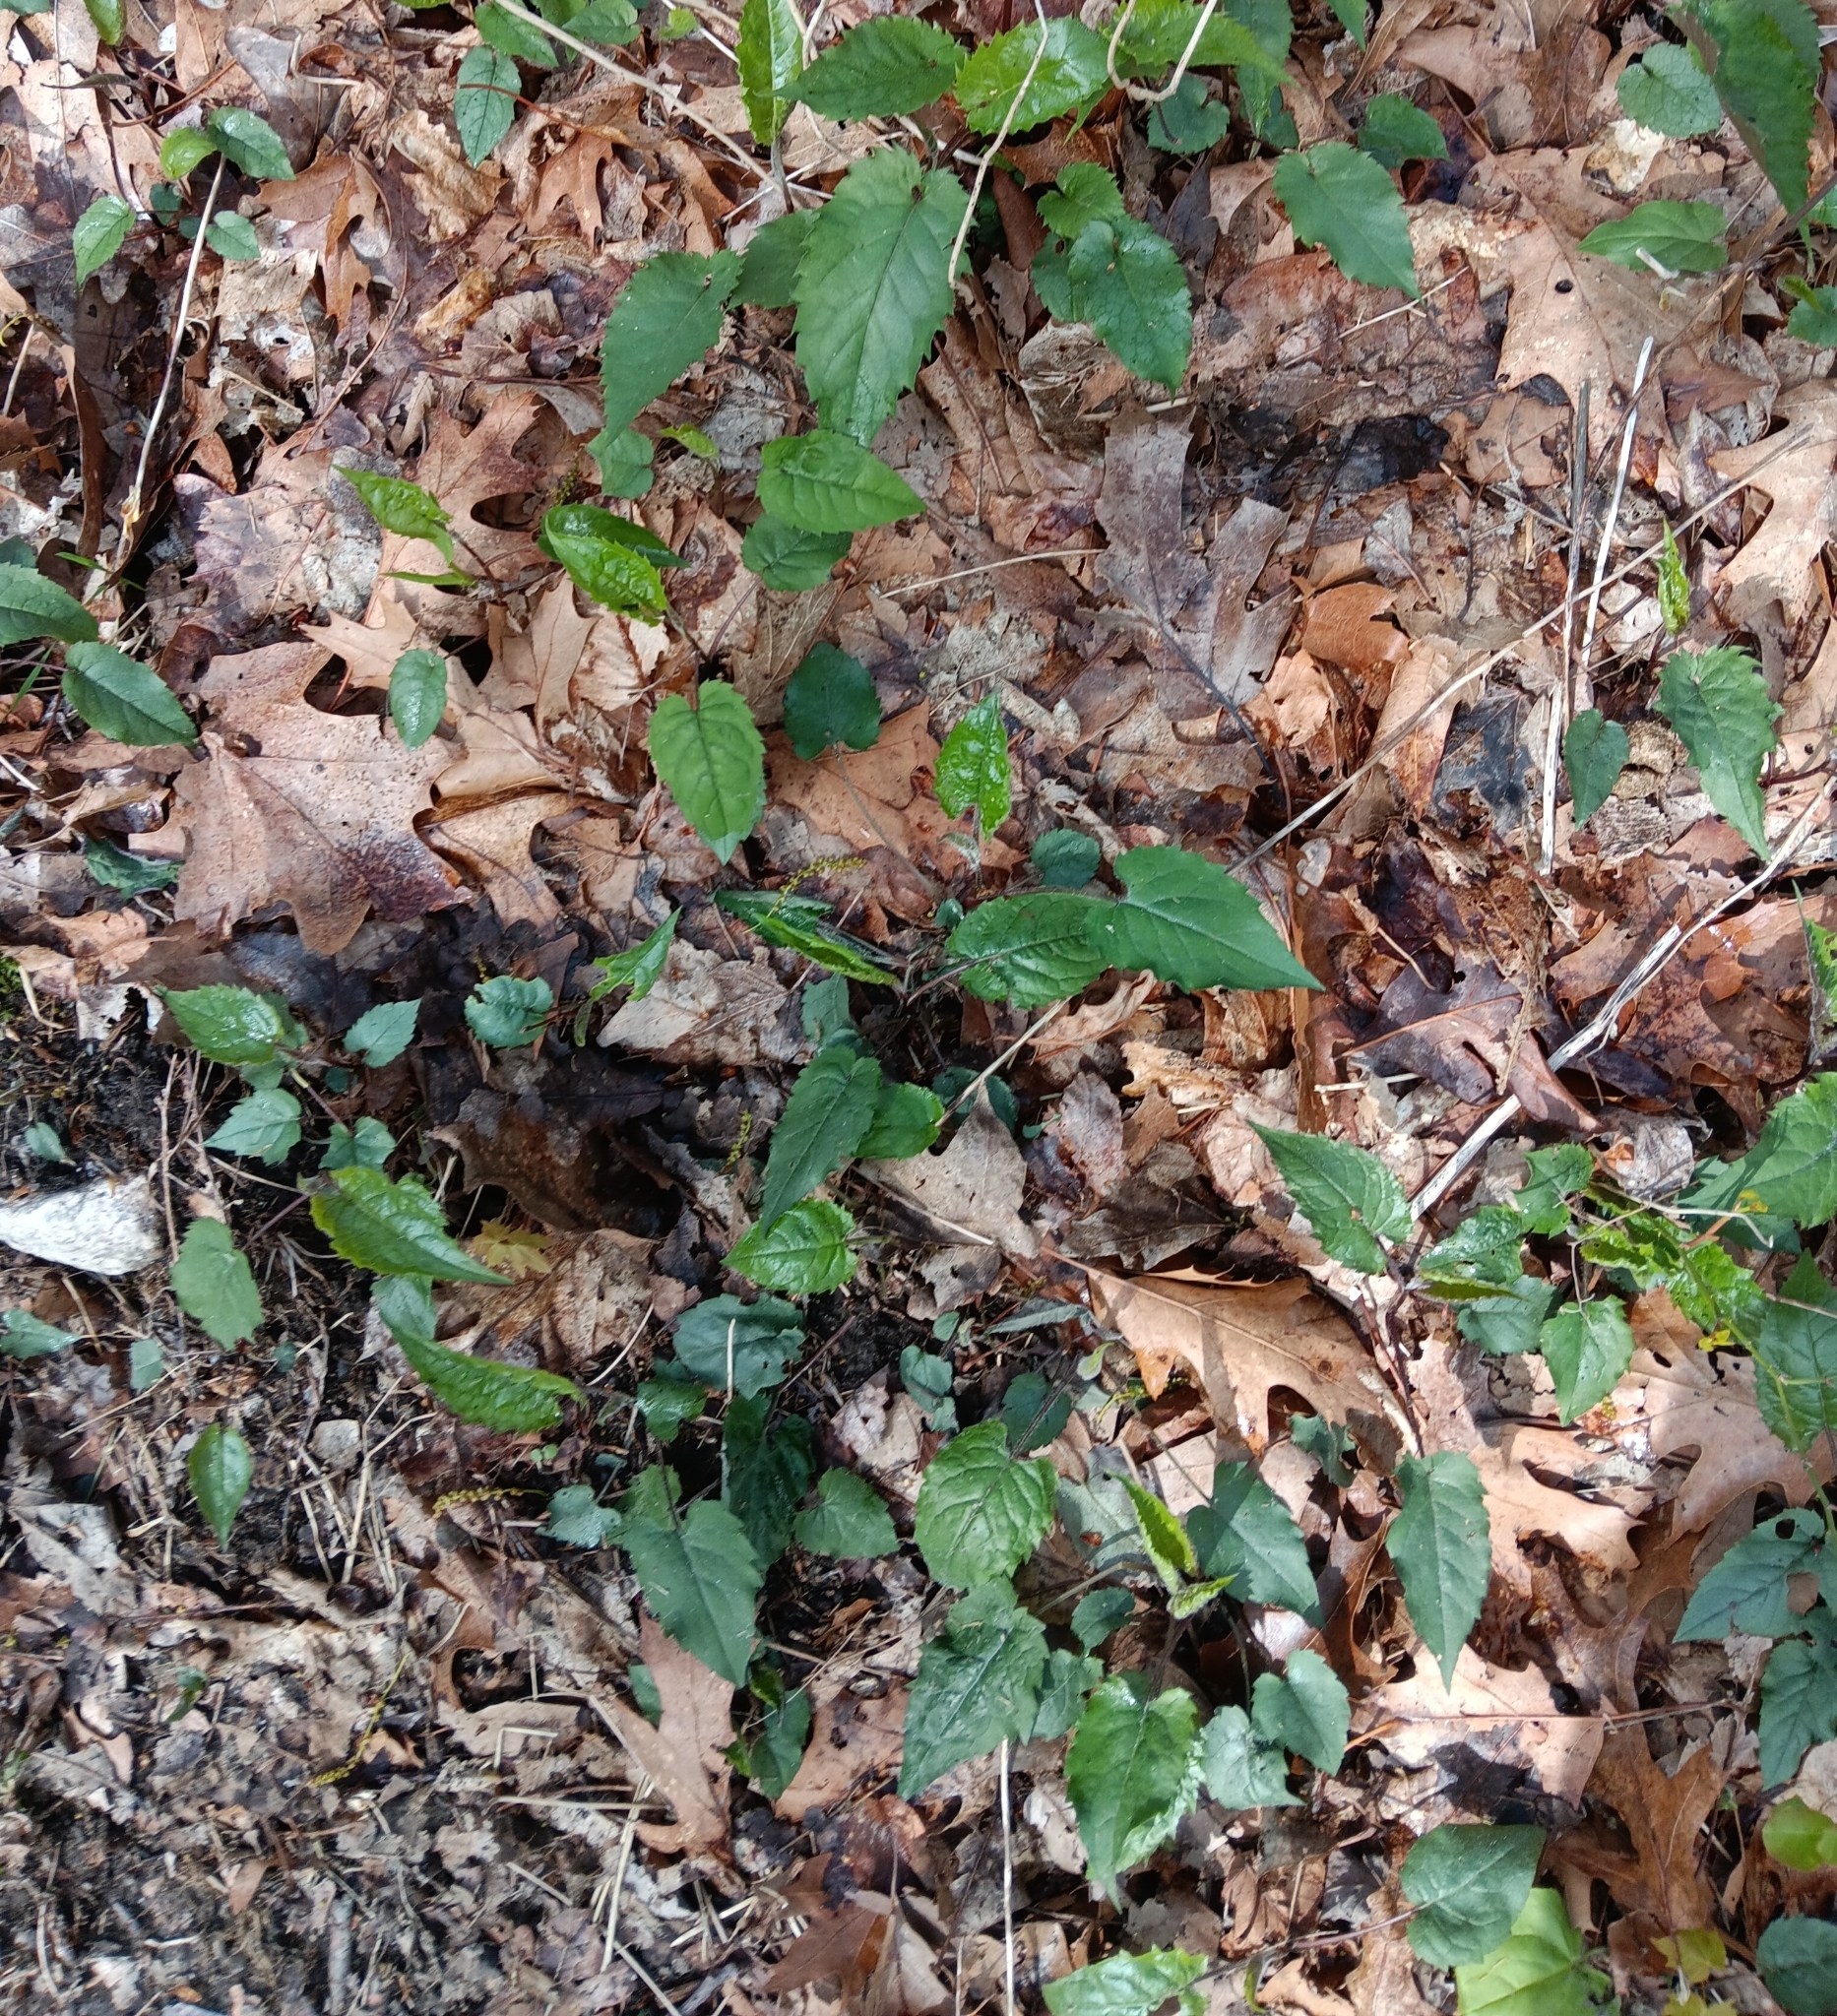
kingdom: Plantae
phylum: Tracheophyta
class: Magnoliopsida
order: Asterales
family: Asteraceae
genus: Eurybia
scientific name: Eurybia divaricata
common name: White wood aster
